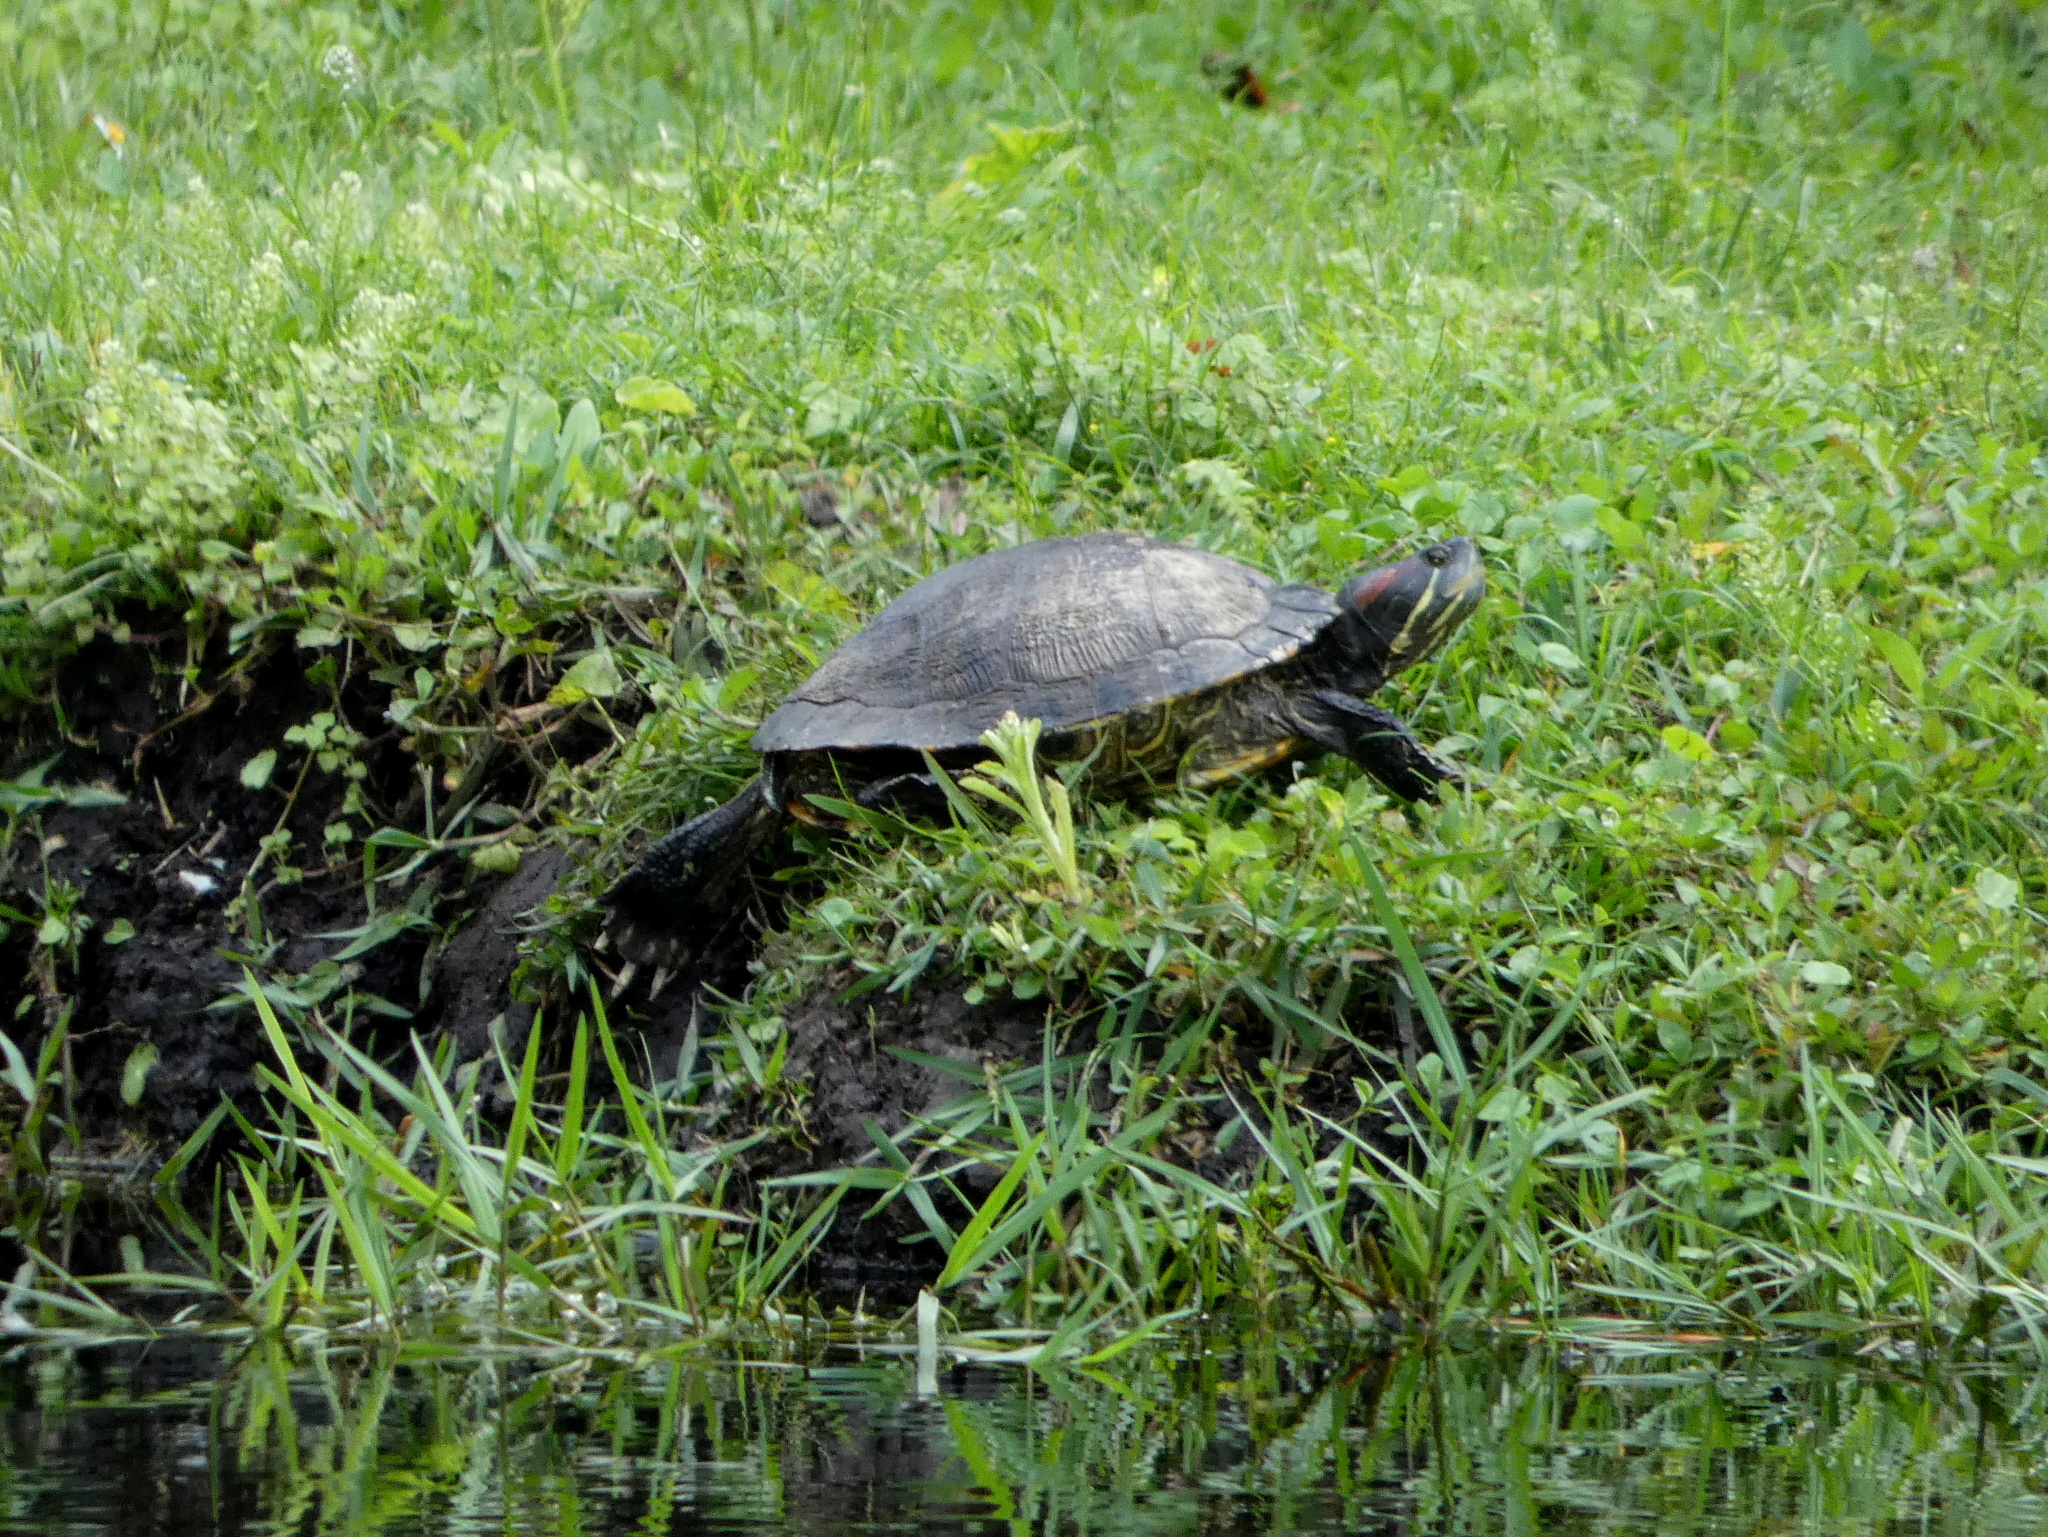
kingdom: Animalia
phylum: Chordata
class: Testudines
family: Emydidae
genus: Trachemys
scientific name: Trachemys scripta
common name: Slider
